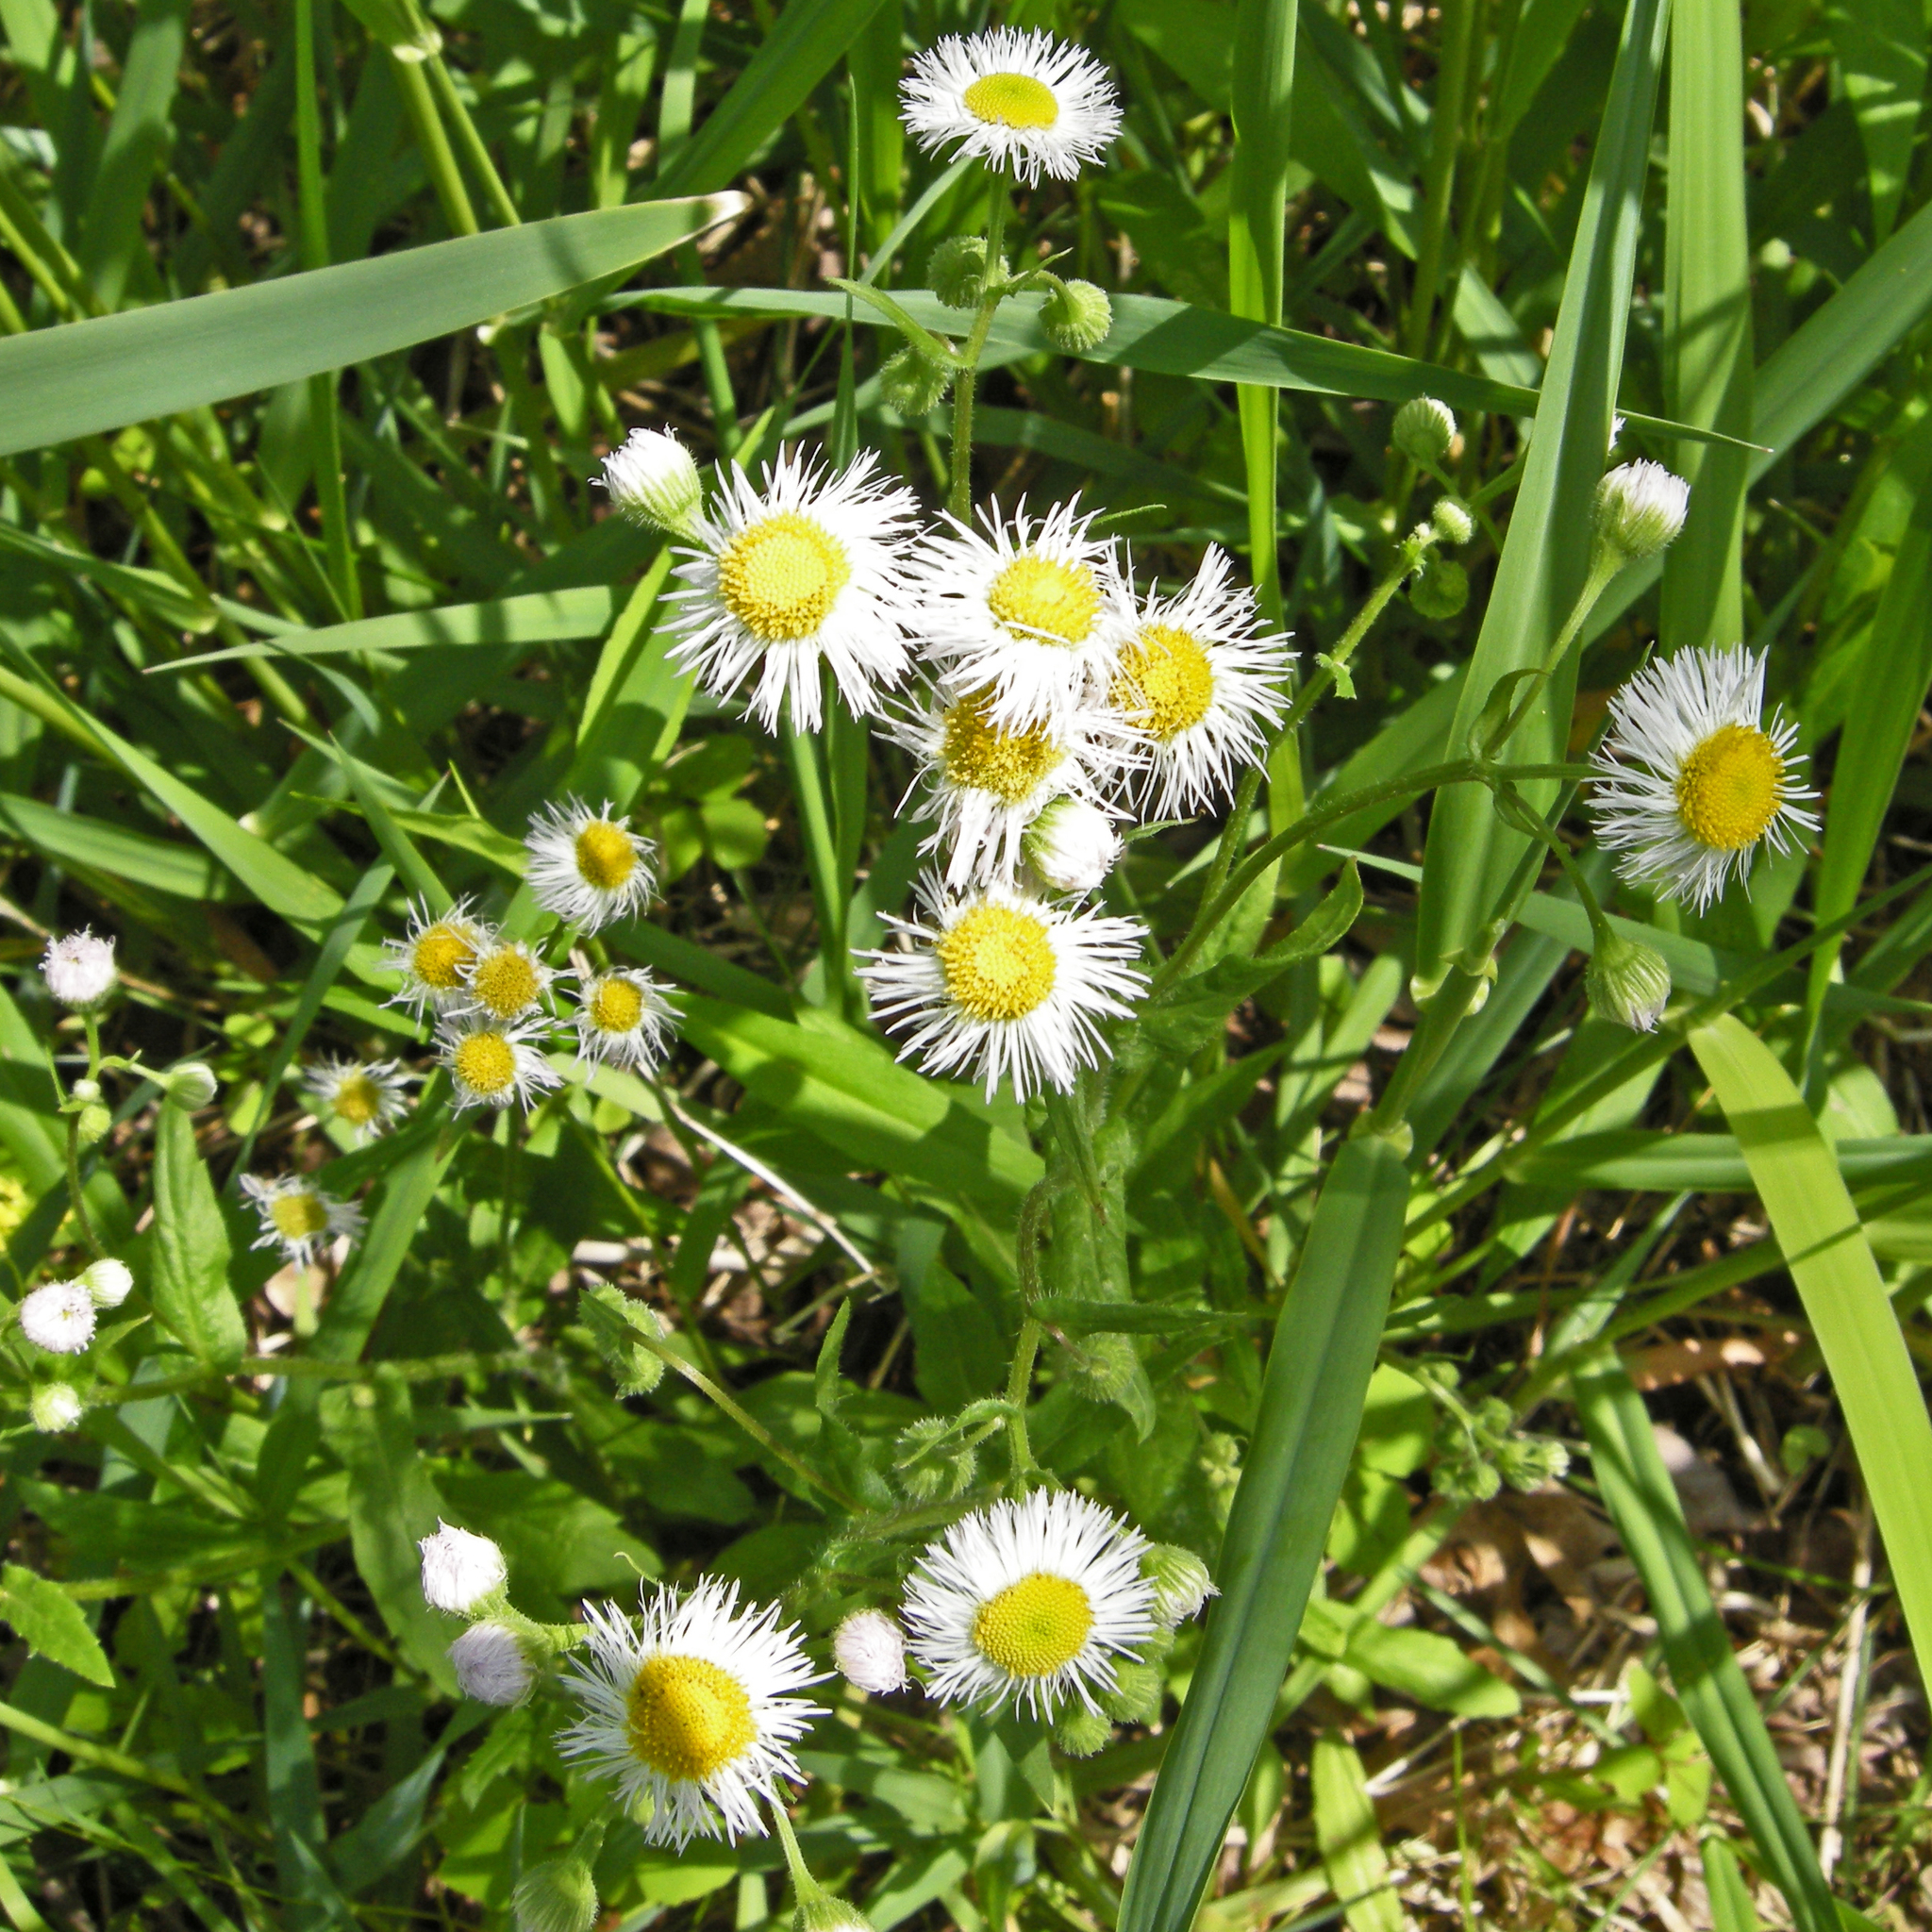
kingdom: Plantae
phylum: Tracheophyta
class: Magnoliopsida
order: Asterales
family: Asteraceae
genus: Erigeron
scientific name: Erigeron philadelphicus
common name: Robin's-plantain
